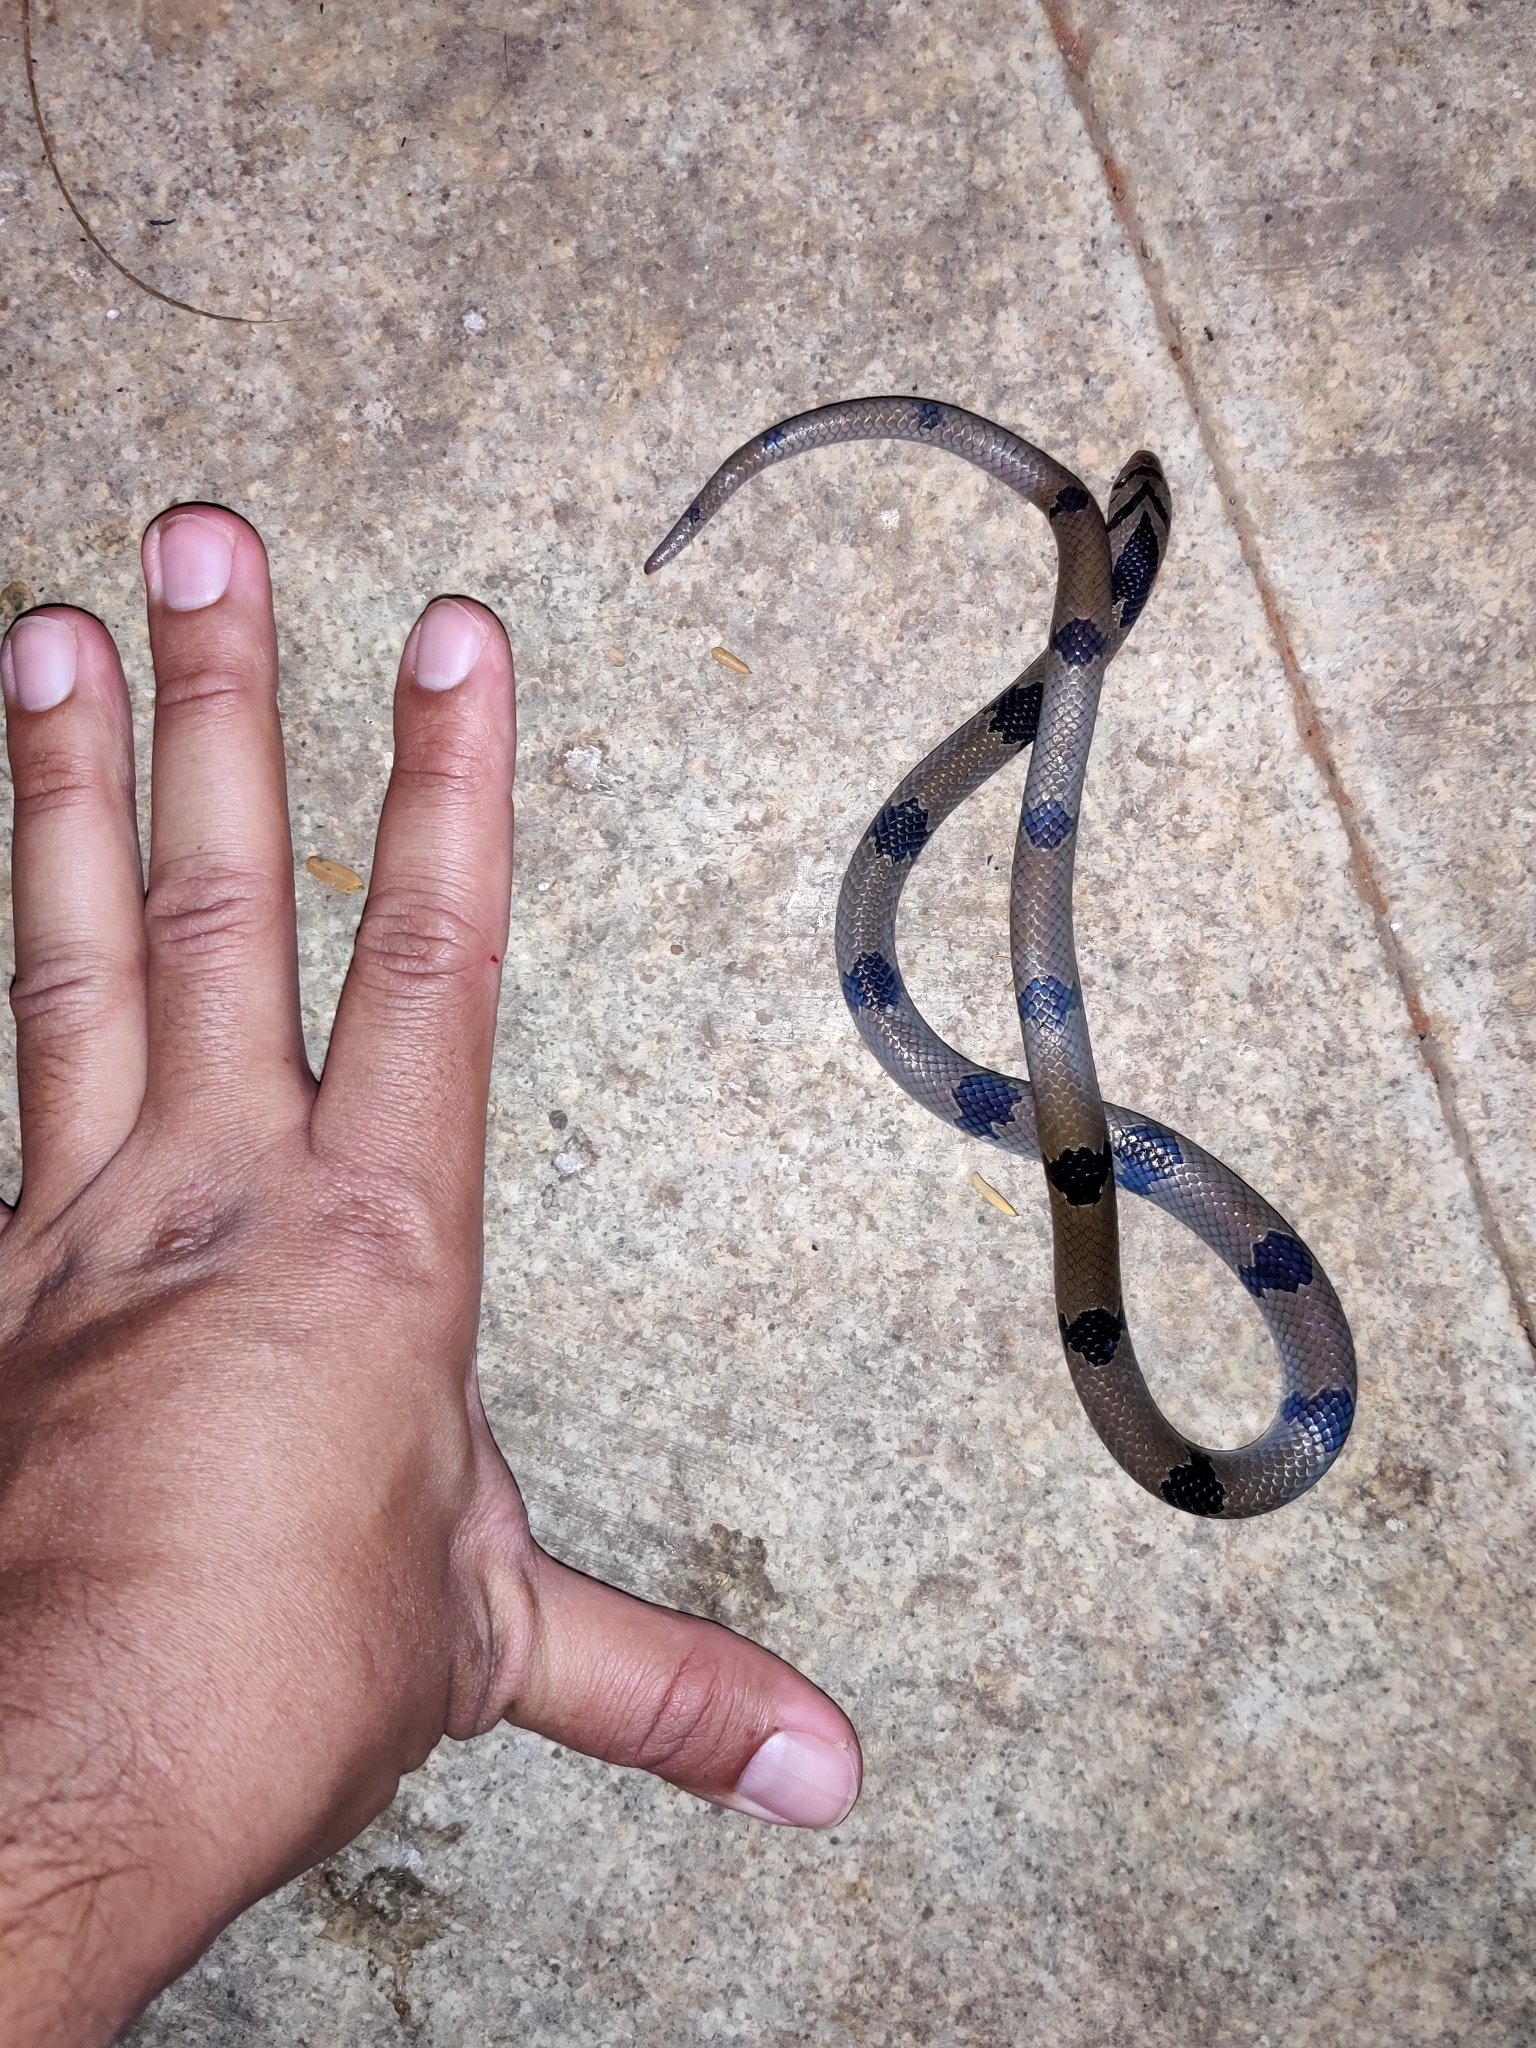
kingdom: Animalia
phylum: Chordata
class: Squamata
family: Colubridae
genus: Oligodon
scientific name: Oligodon arnensis
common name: Banded kukri
